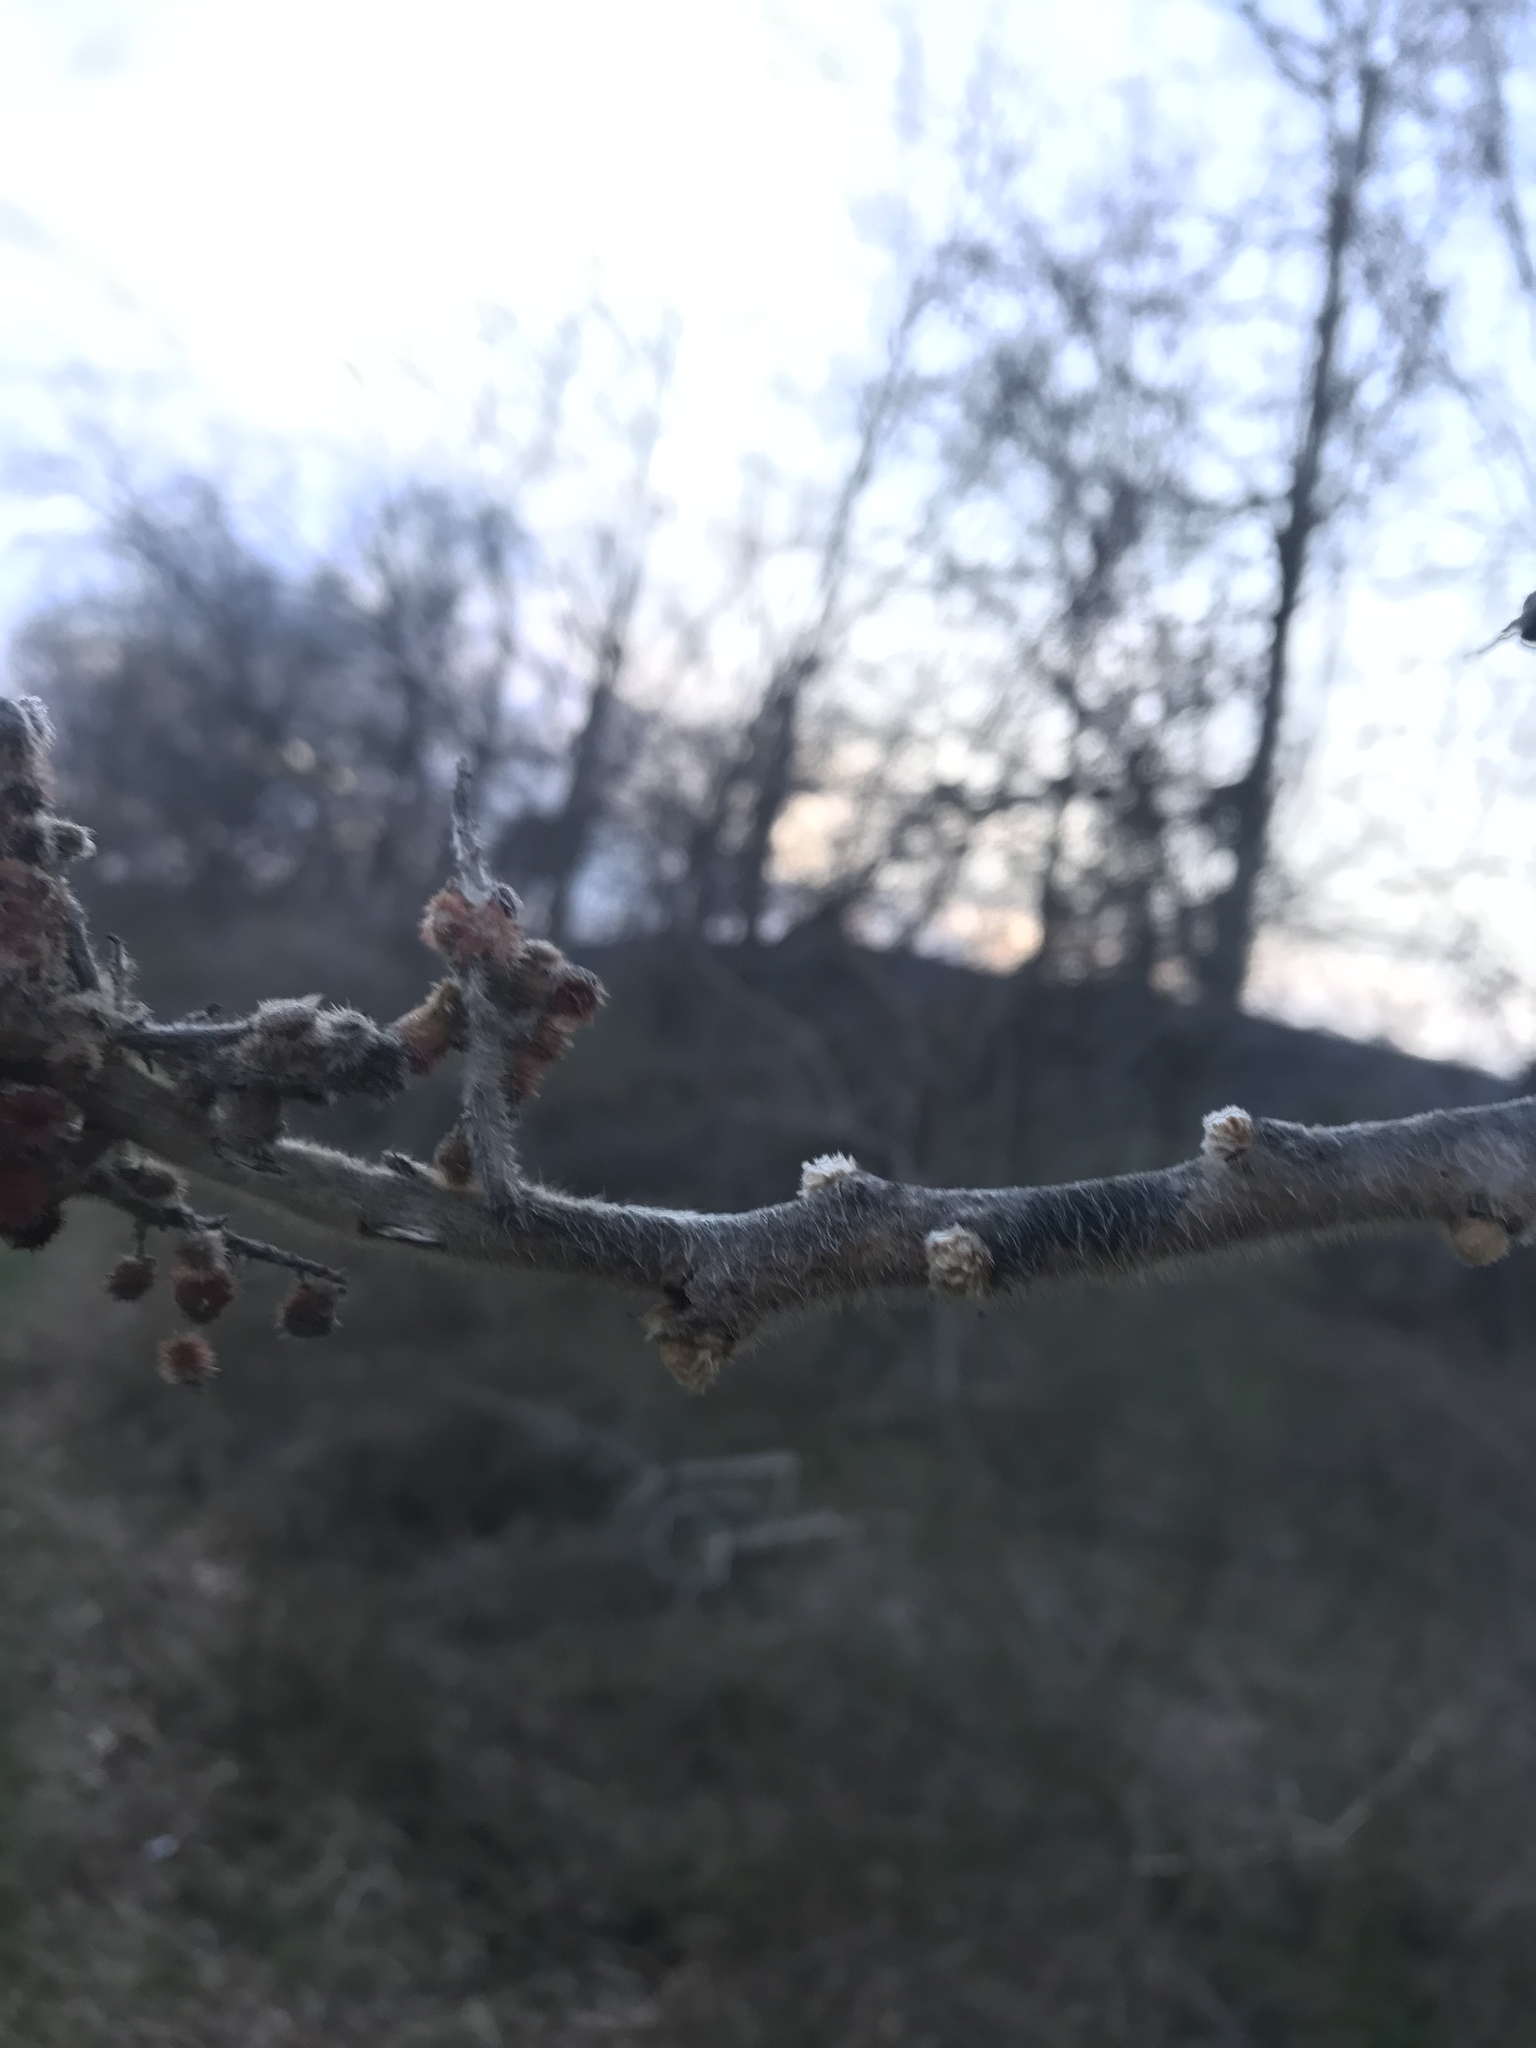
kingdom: Plantae
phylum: Tracheophyta
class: Magnoliopsida
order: Sapindales
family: Anacardiaceae
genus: Rhus
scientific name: Rhus typhina
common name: Staghorn sumac
